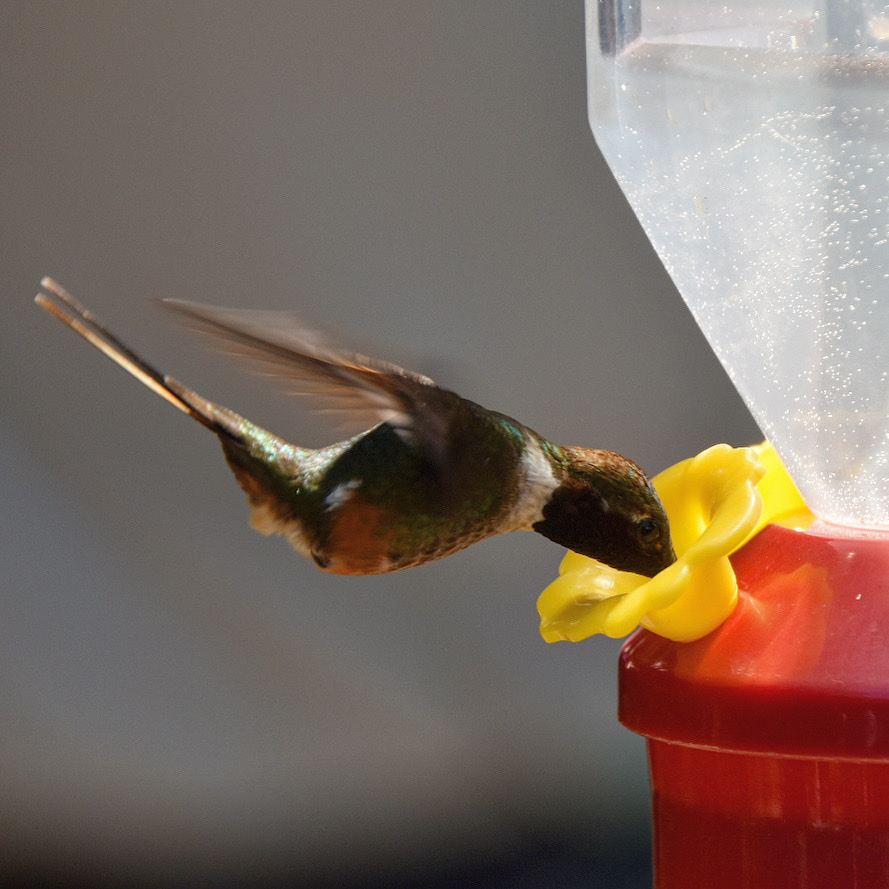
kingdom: Animalia
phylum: Chordata
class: Aves
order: Apodiformes
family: Trochilidae
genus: Calliphlox
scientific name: Calliphlox bryantae
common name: Magenta-throated woodstar
